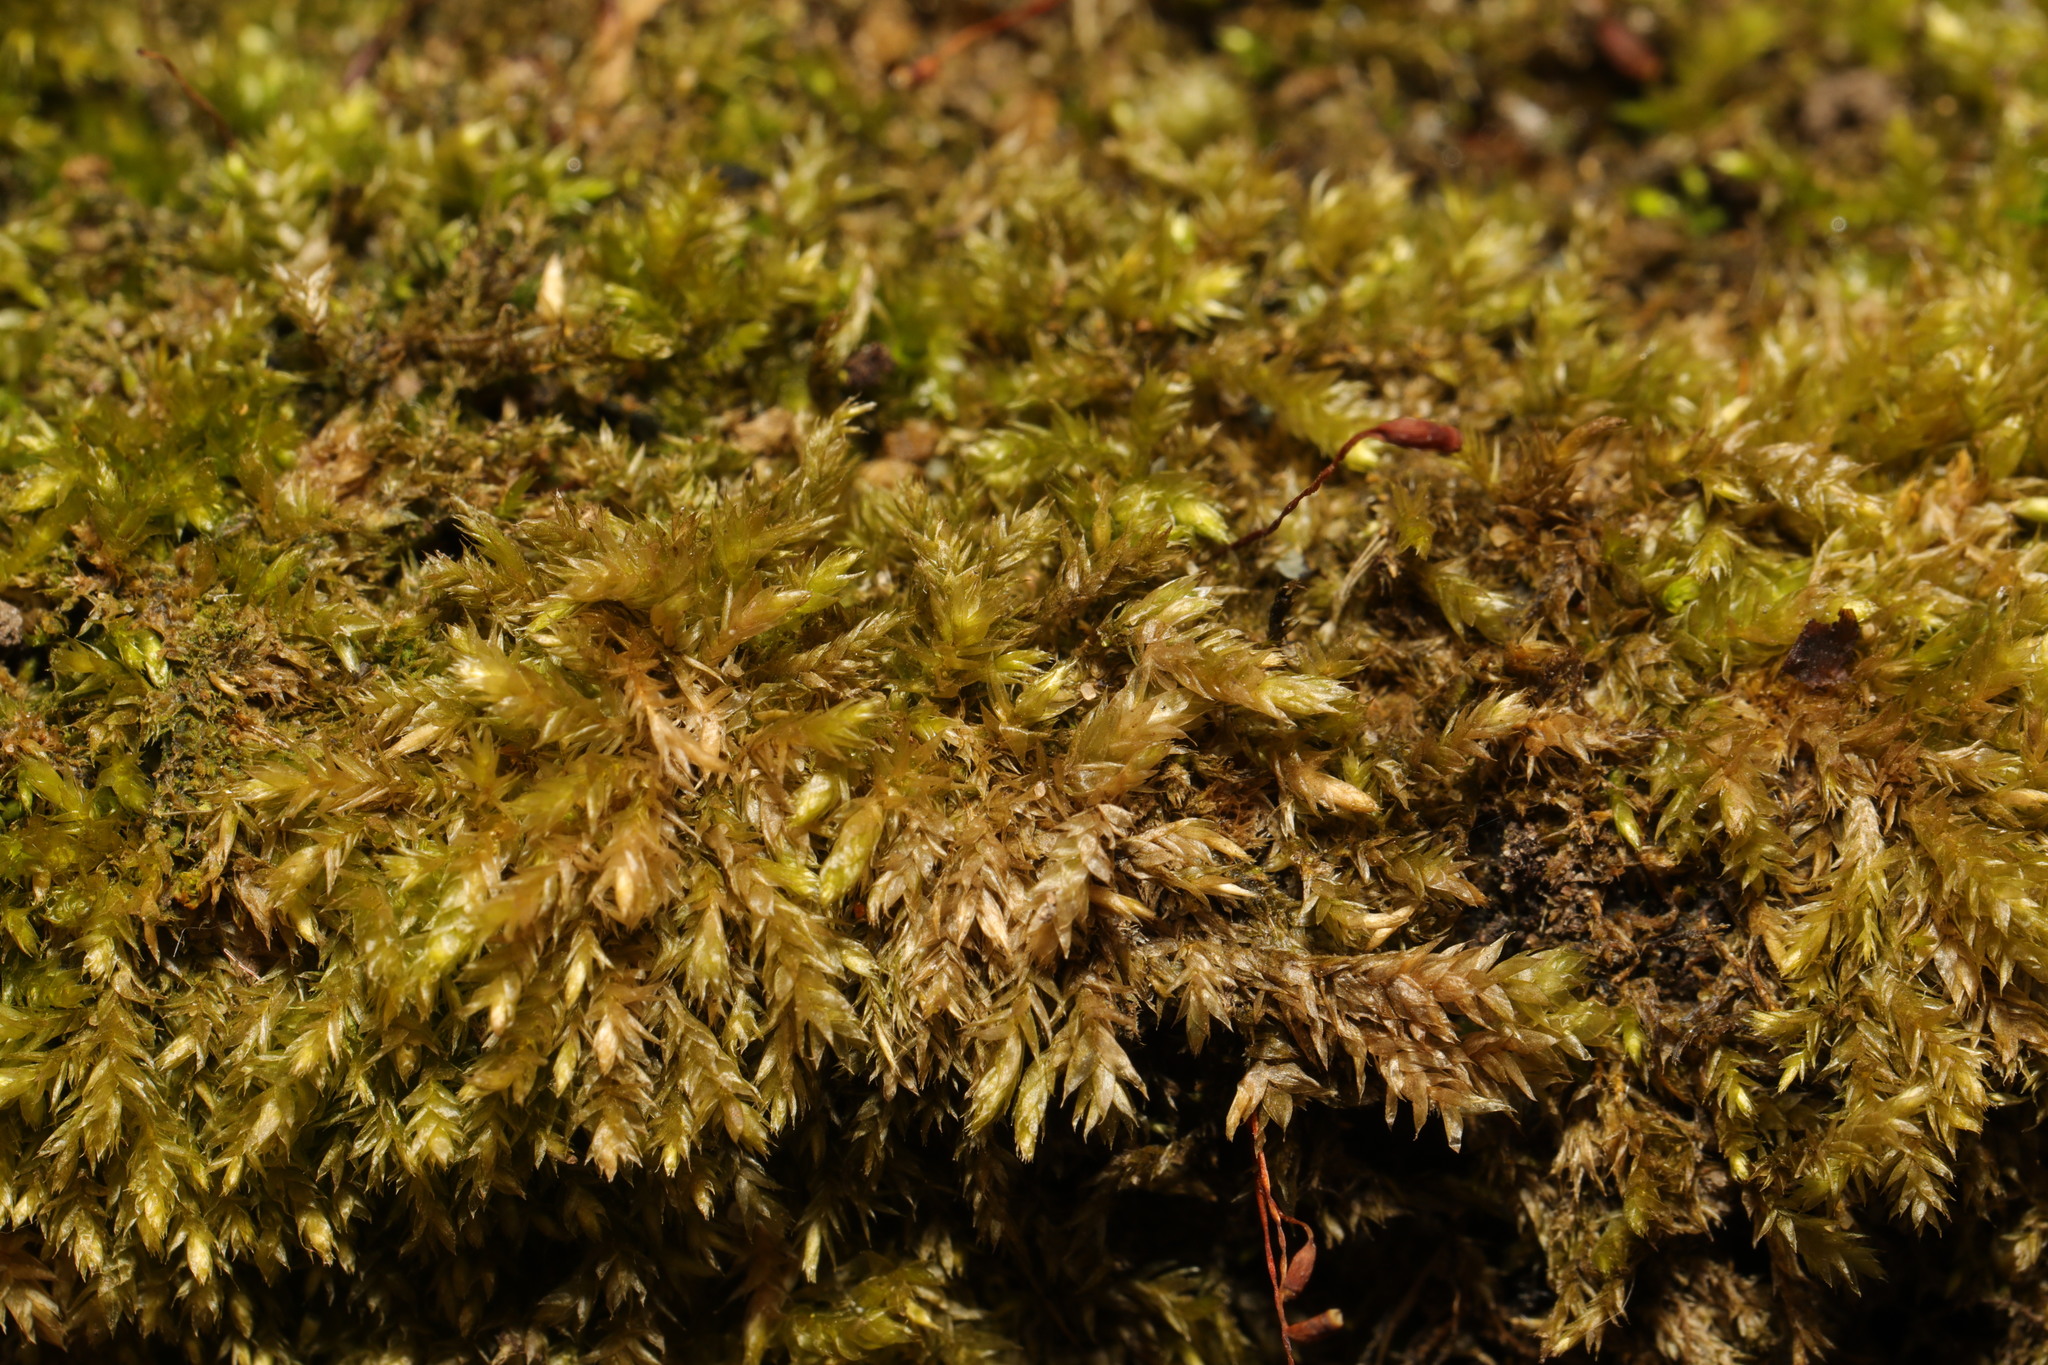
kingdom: Plantae
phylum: Bryophyta
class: Bryopsida
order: Hypnales
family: Brachytheciaceae
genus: Brachythecium
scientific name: Brachythecium rutabulum
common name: Rough-stalked feather-moss
